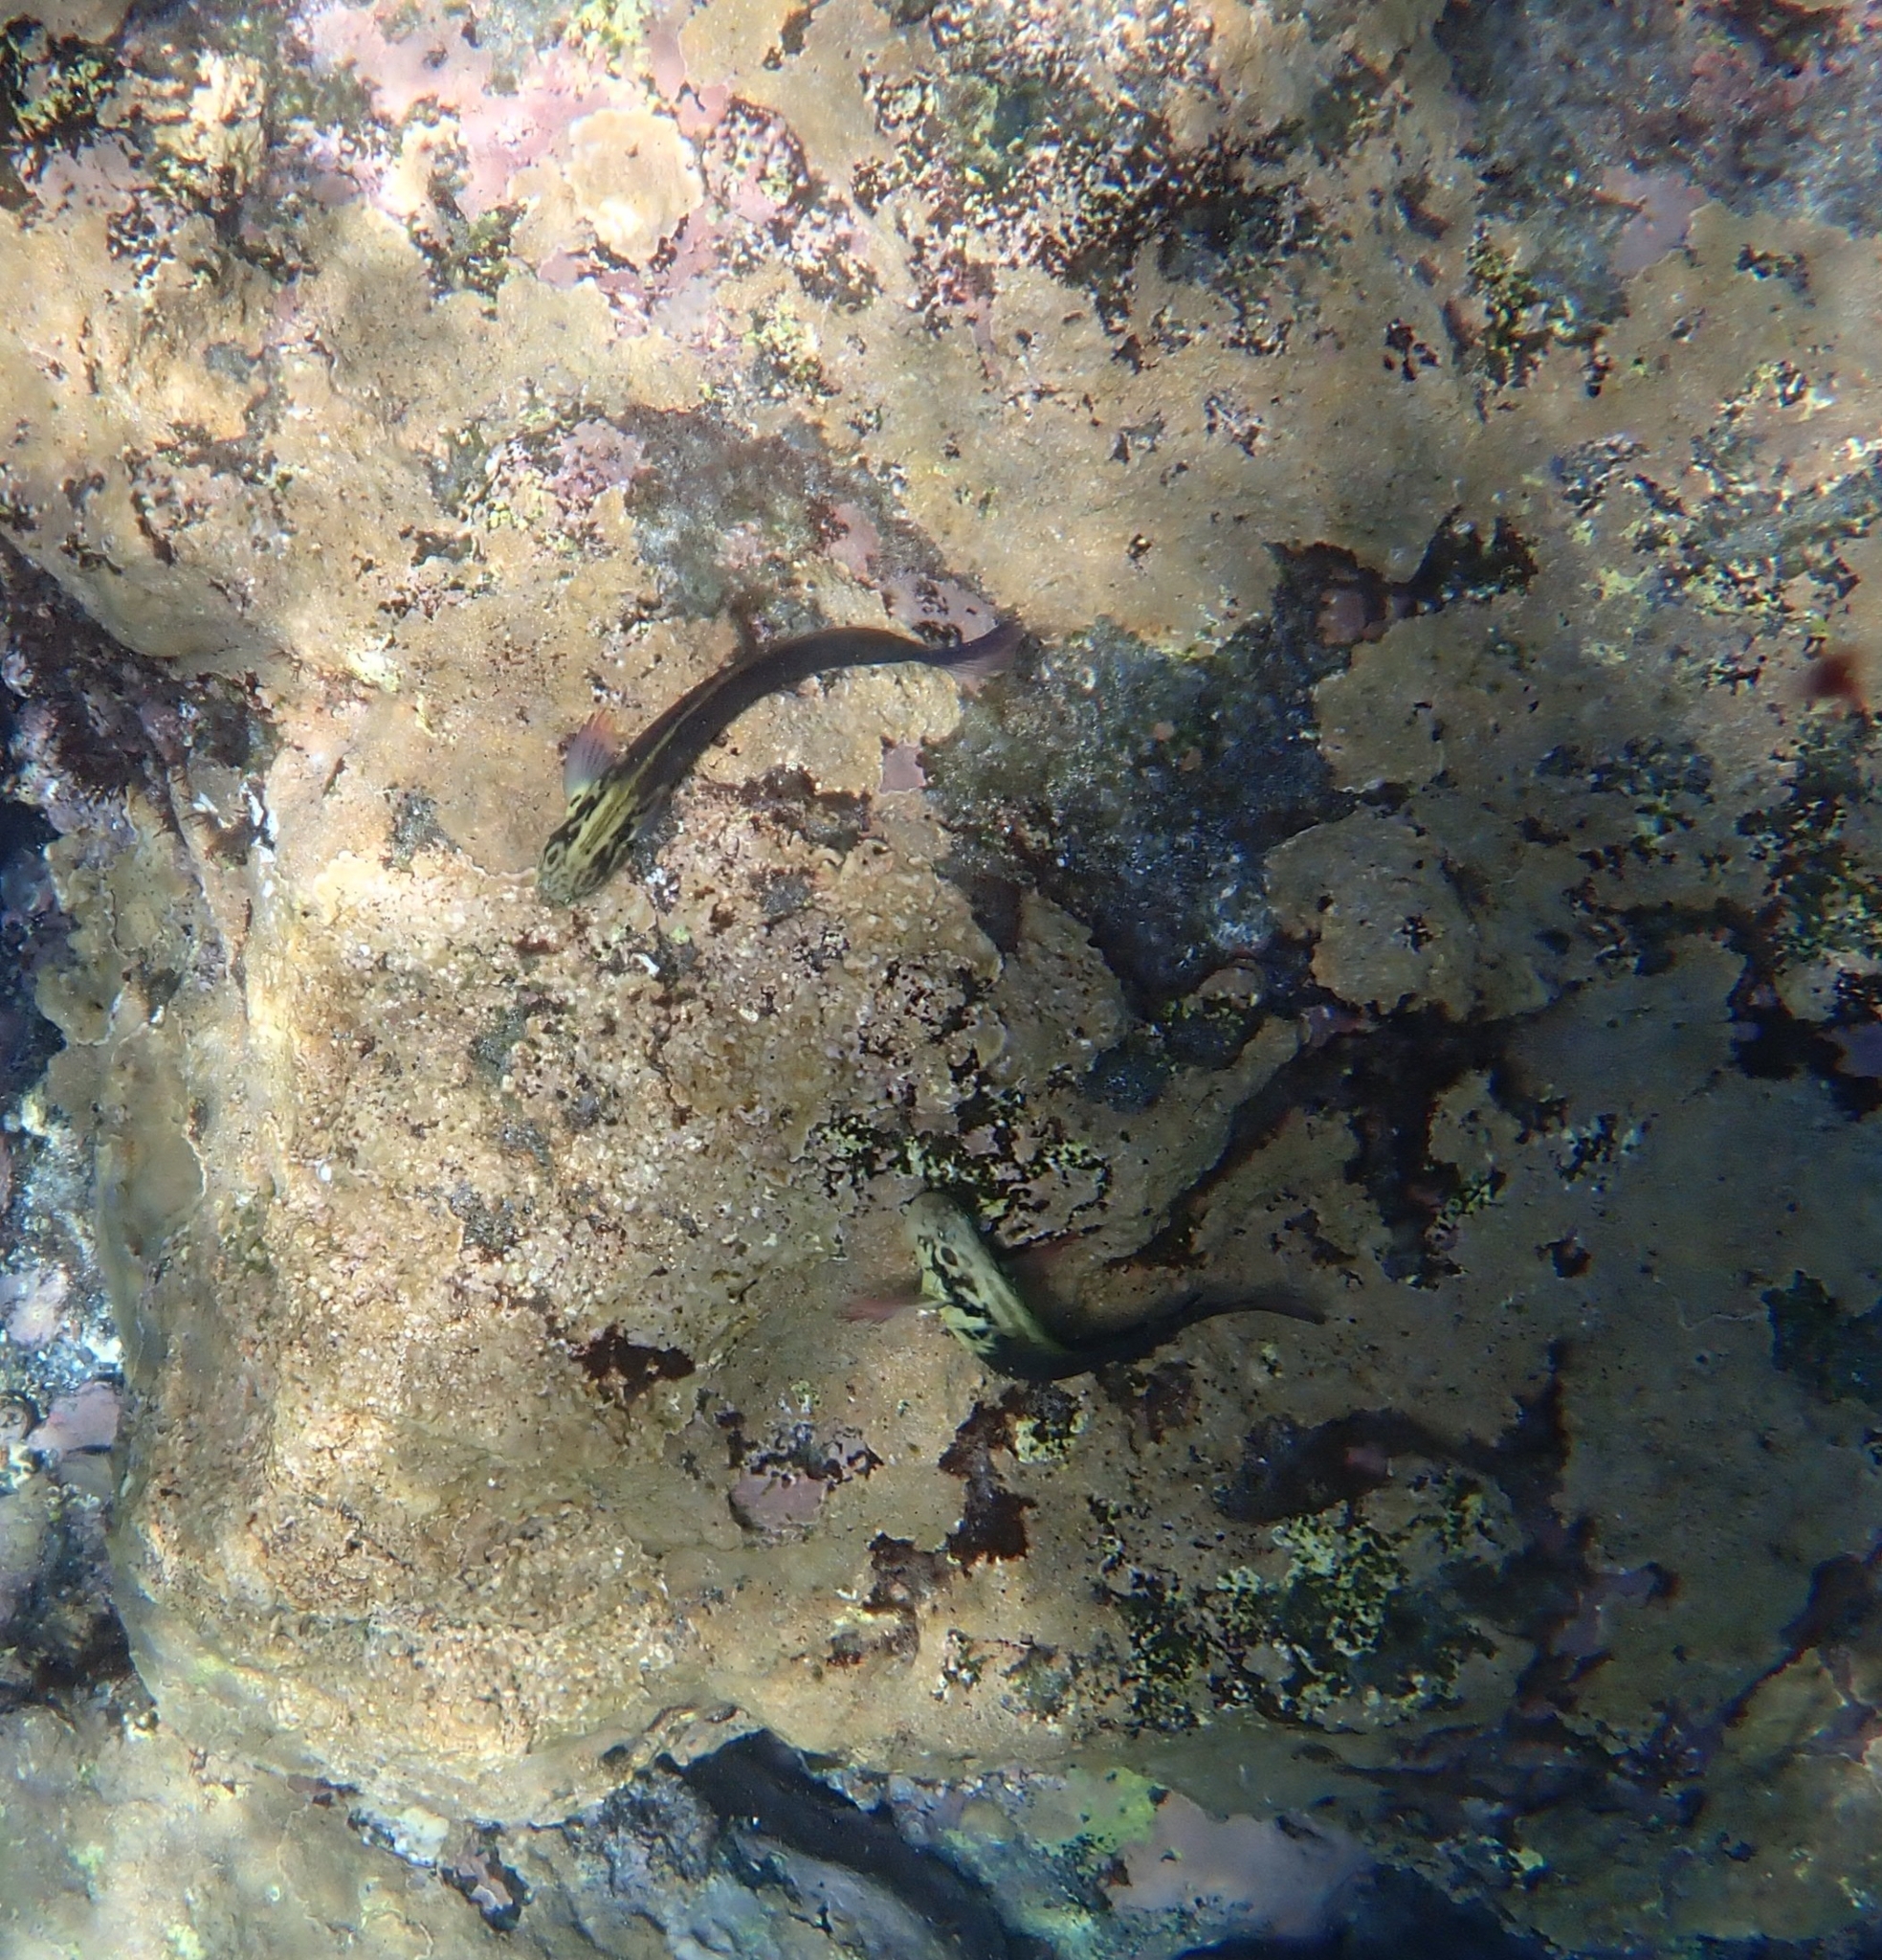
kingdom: Animalia
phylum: Chordata
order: Perciformes
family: Blenniidae
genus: Ophioblennius
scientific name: Ophioblennius atlanticus
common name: Redlip blenny
